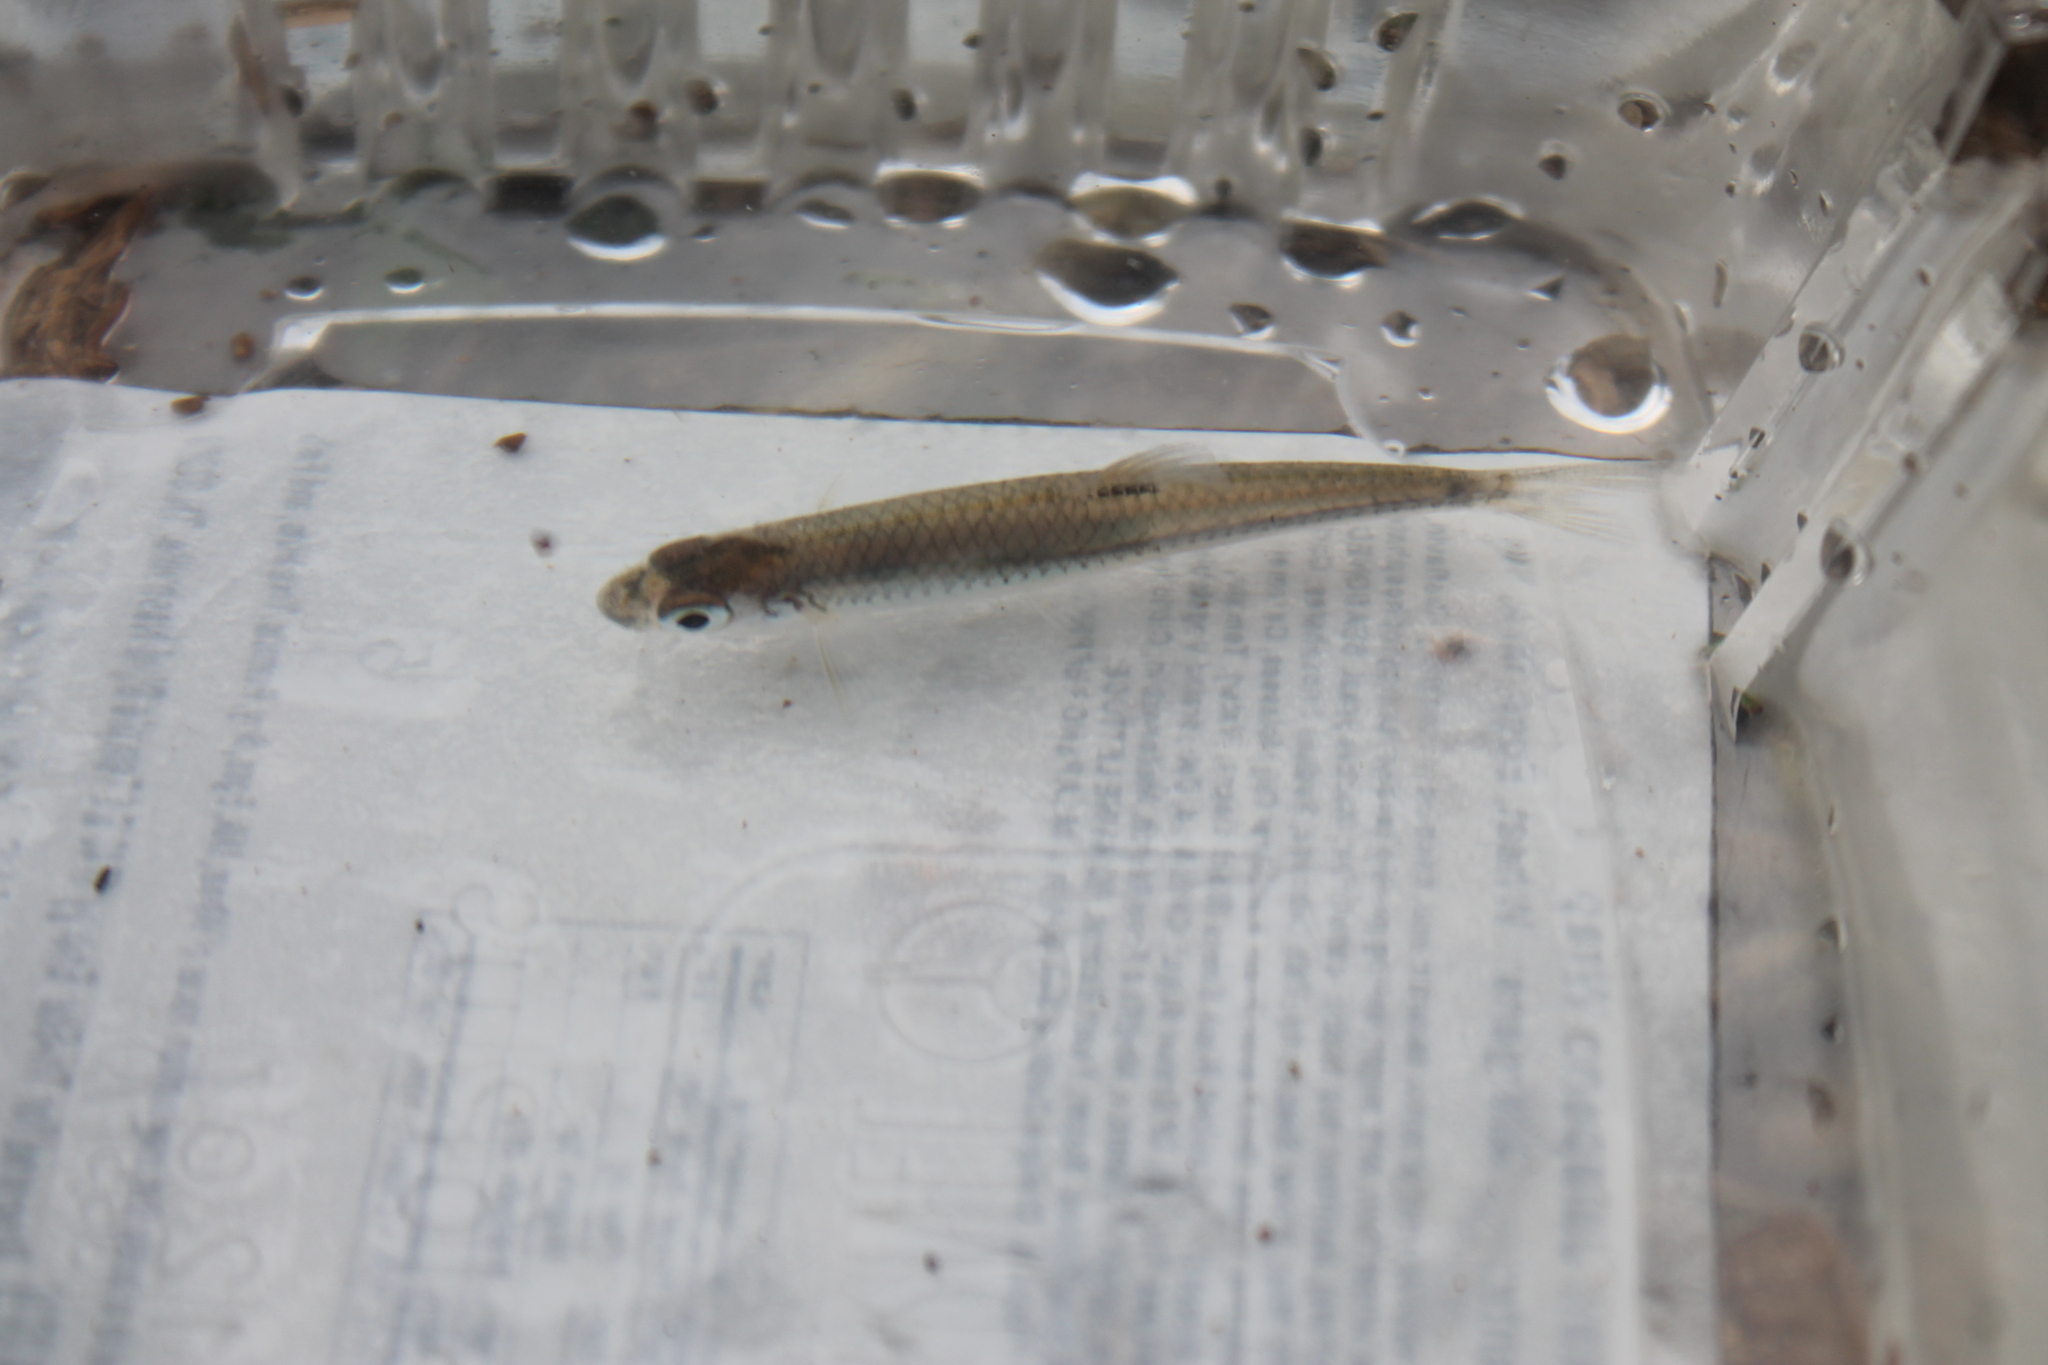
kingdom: Animalia
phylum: Chordata
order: Cypriniformes
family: Cyprinidae
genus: Notropis
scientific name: Notropis
